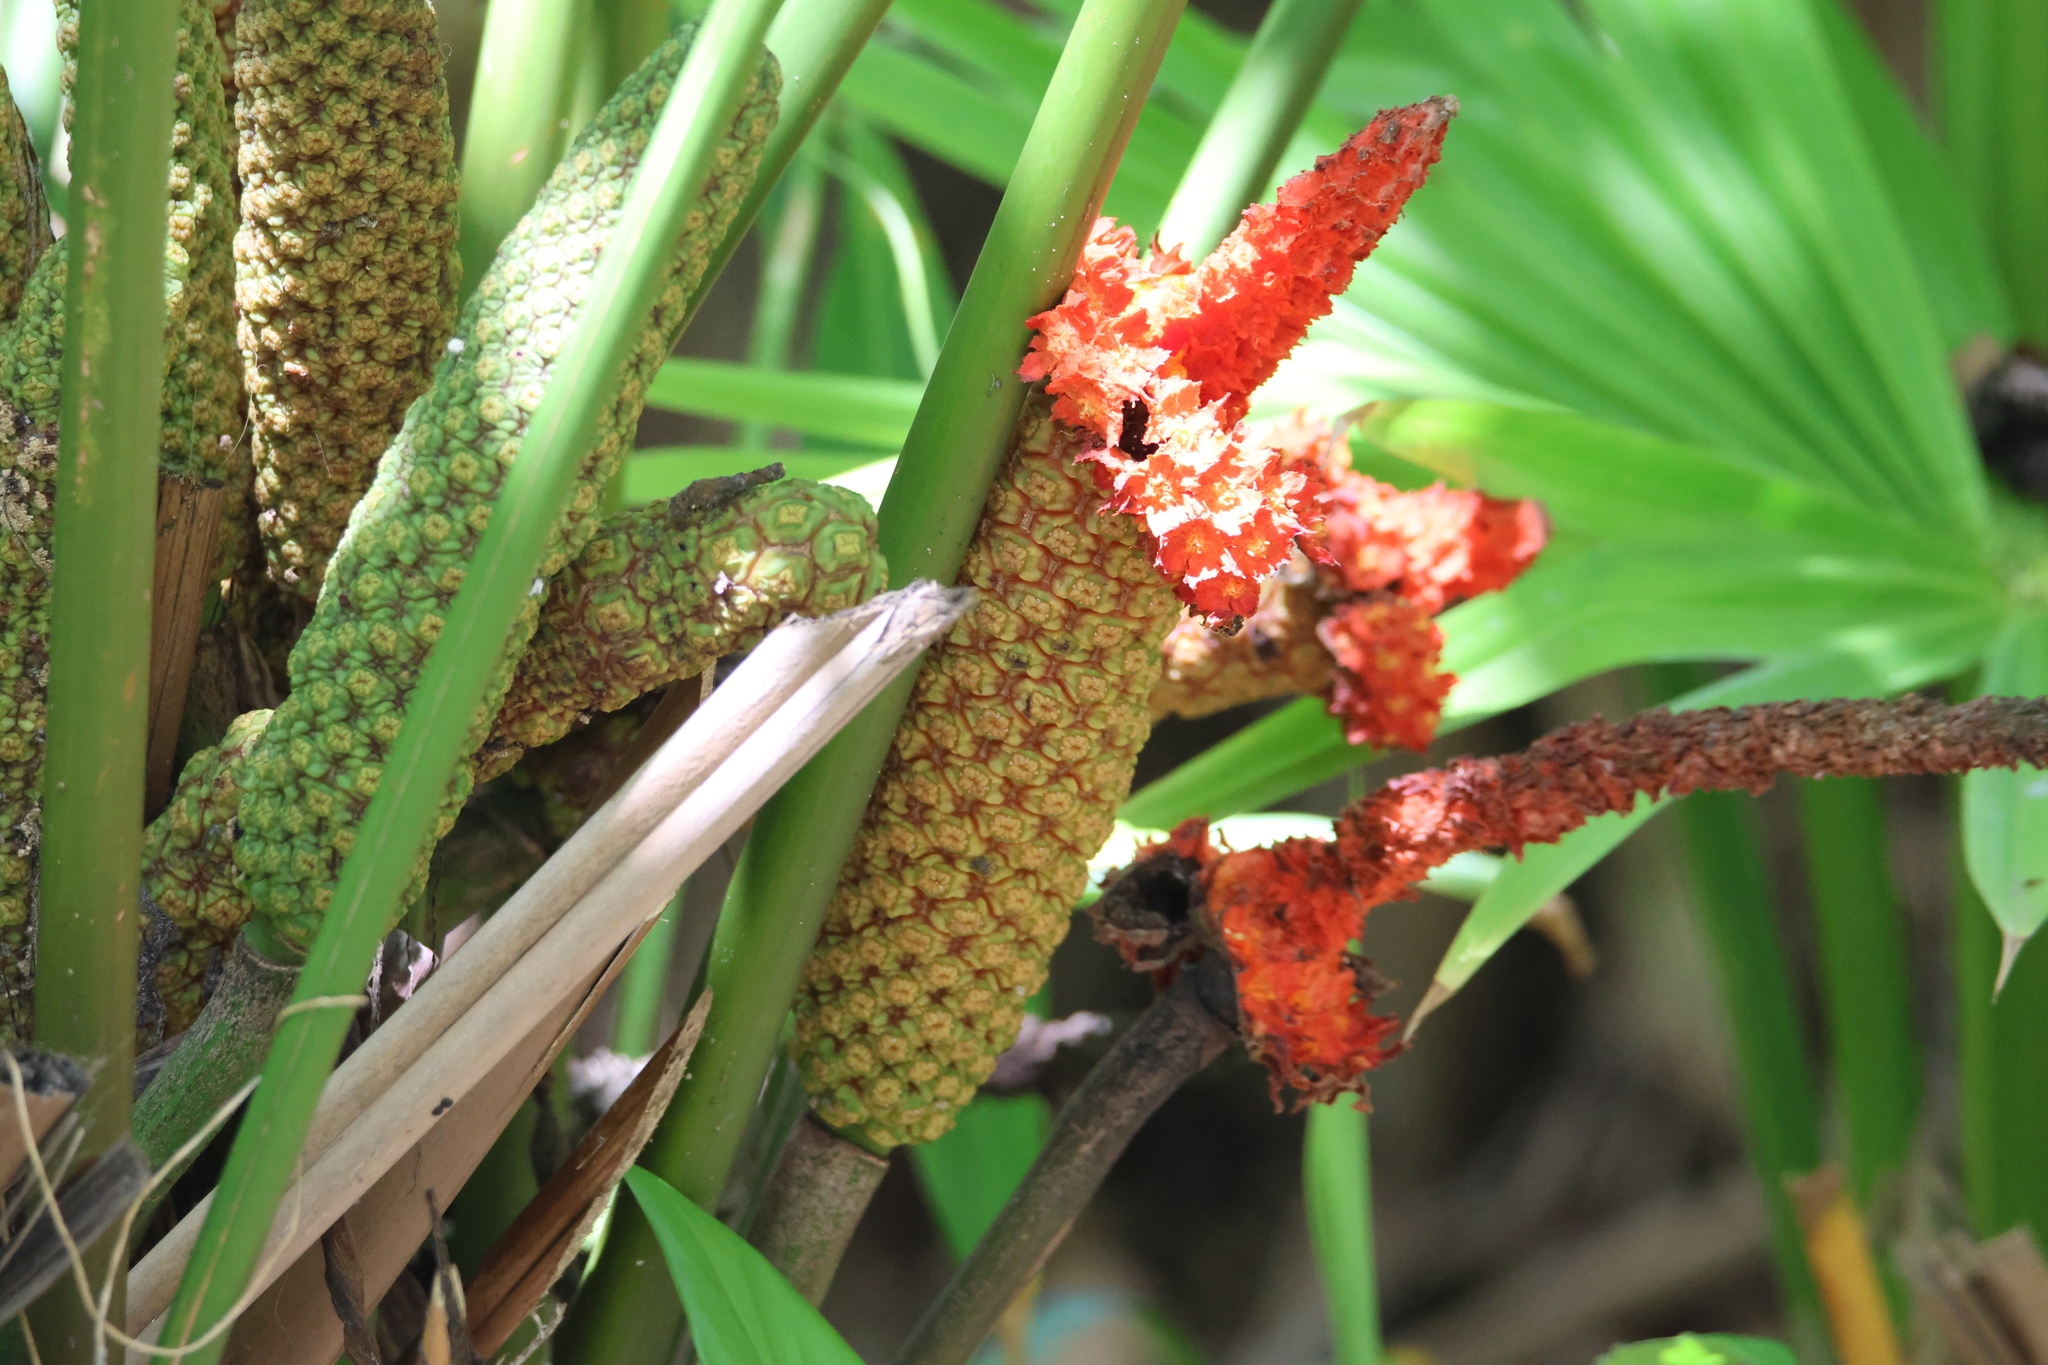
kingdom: Plantae
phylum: Tracheophyta
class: Liliopsida
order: Pandanales
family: Cyclanthaceae
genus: Carludovica
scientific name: Carludovica palmata
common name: Panama hat plant
